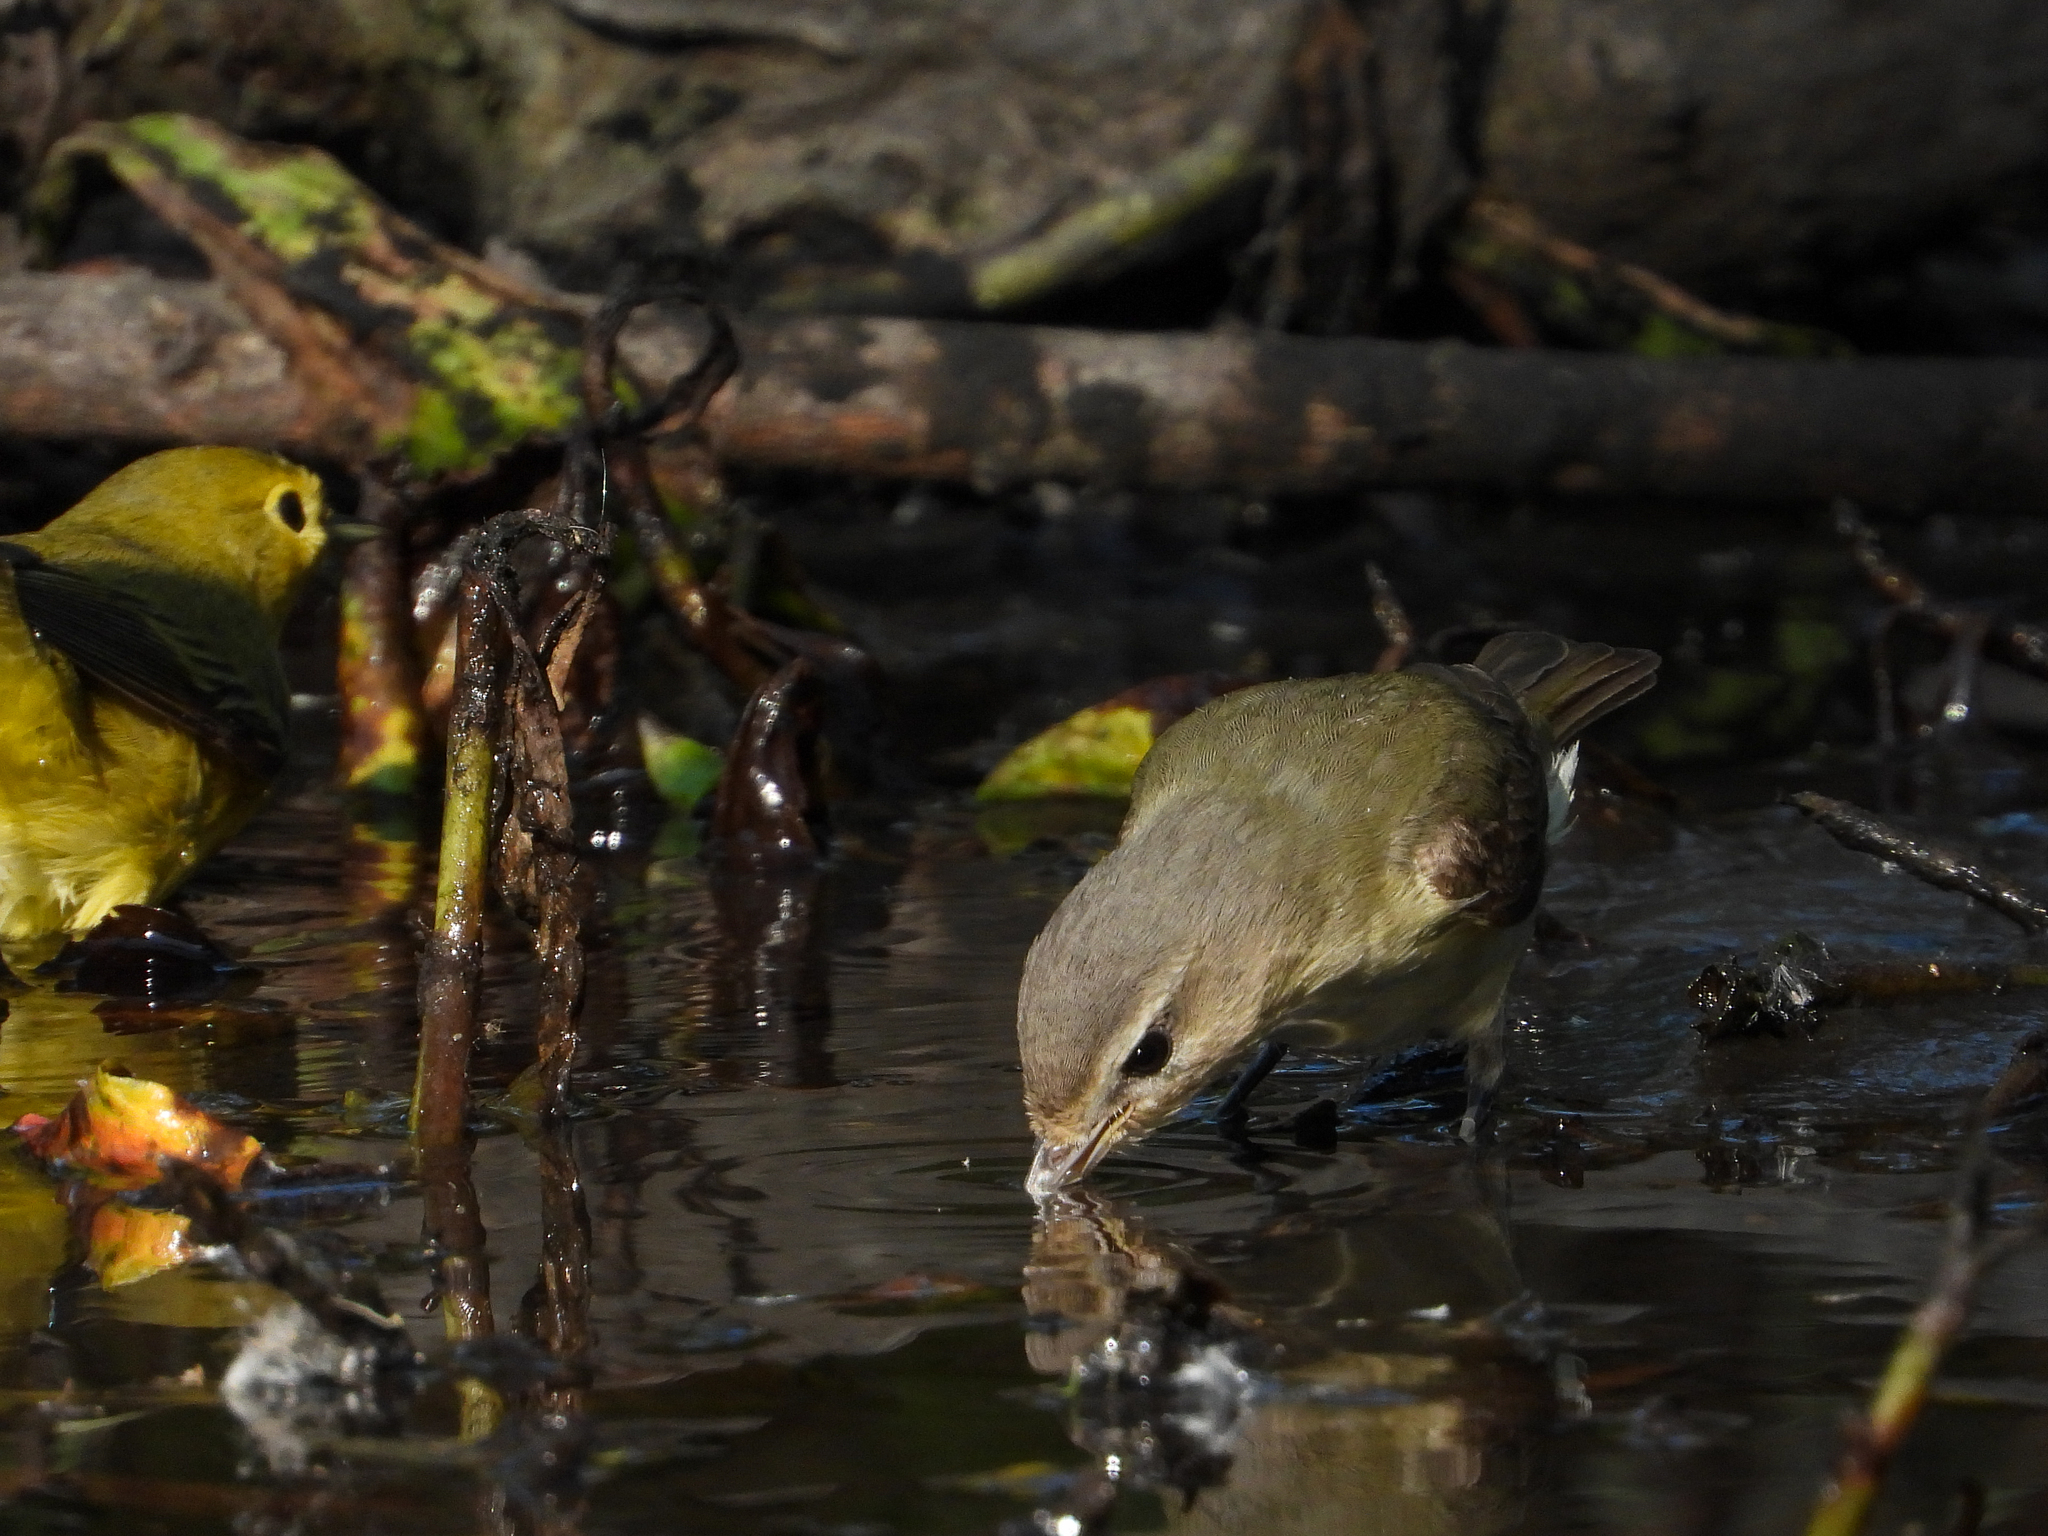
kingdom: Animalia
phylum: Chordata
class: Aves
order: Passeriformes
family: Vireonidae
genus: Vireo
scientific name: Vireo gilvus
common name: Warbling vireo
